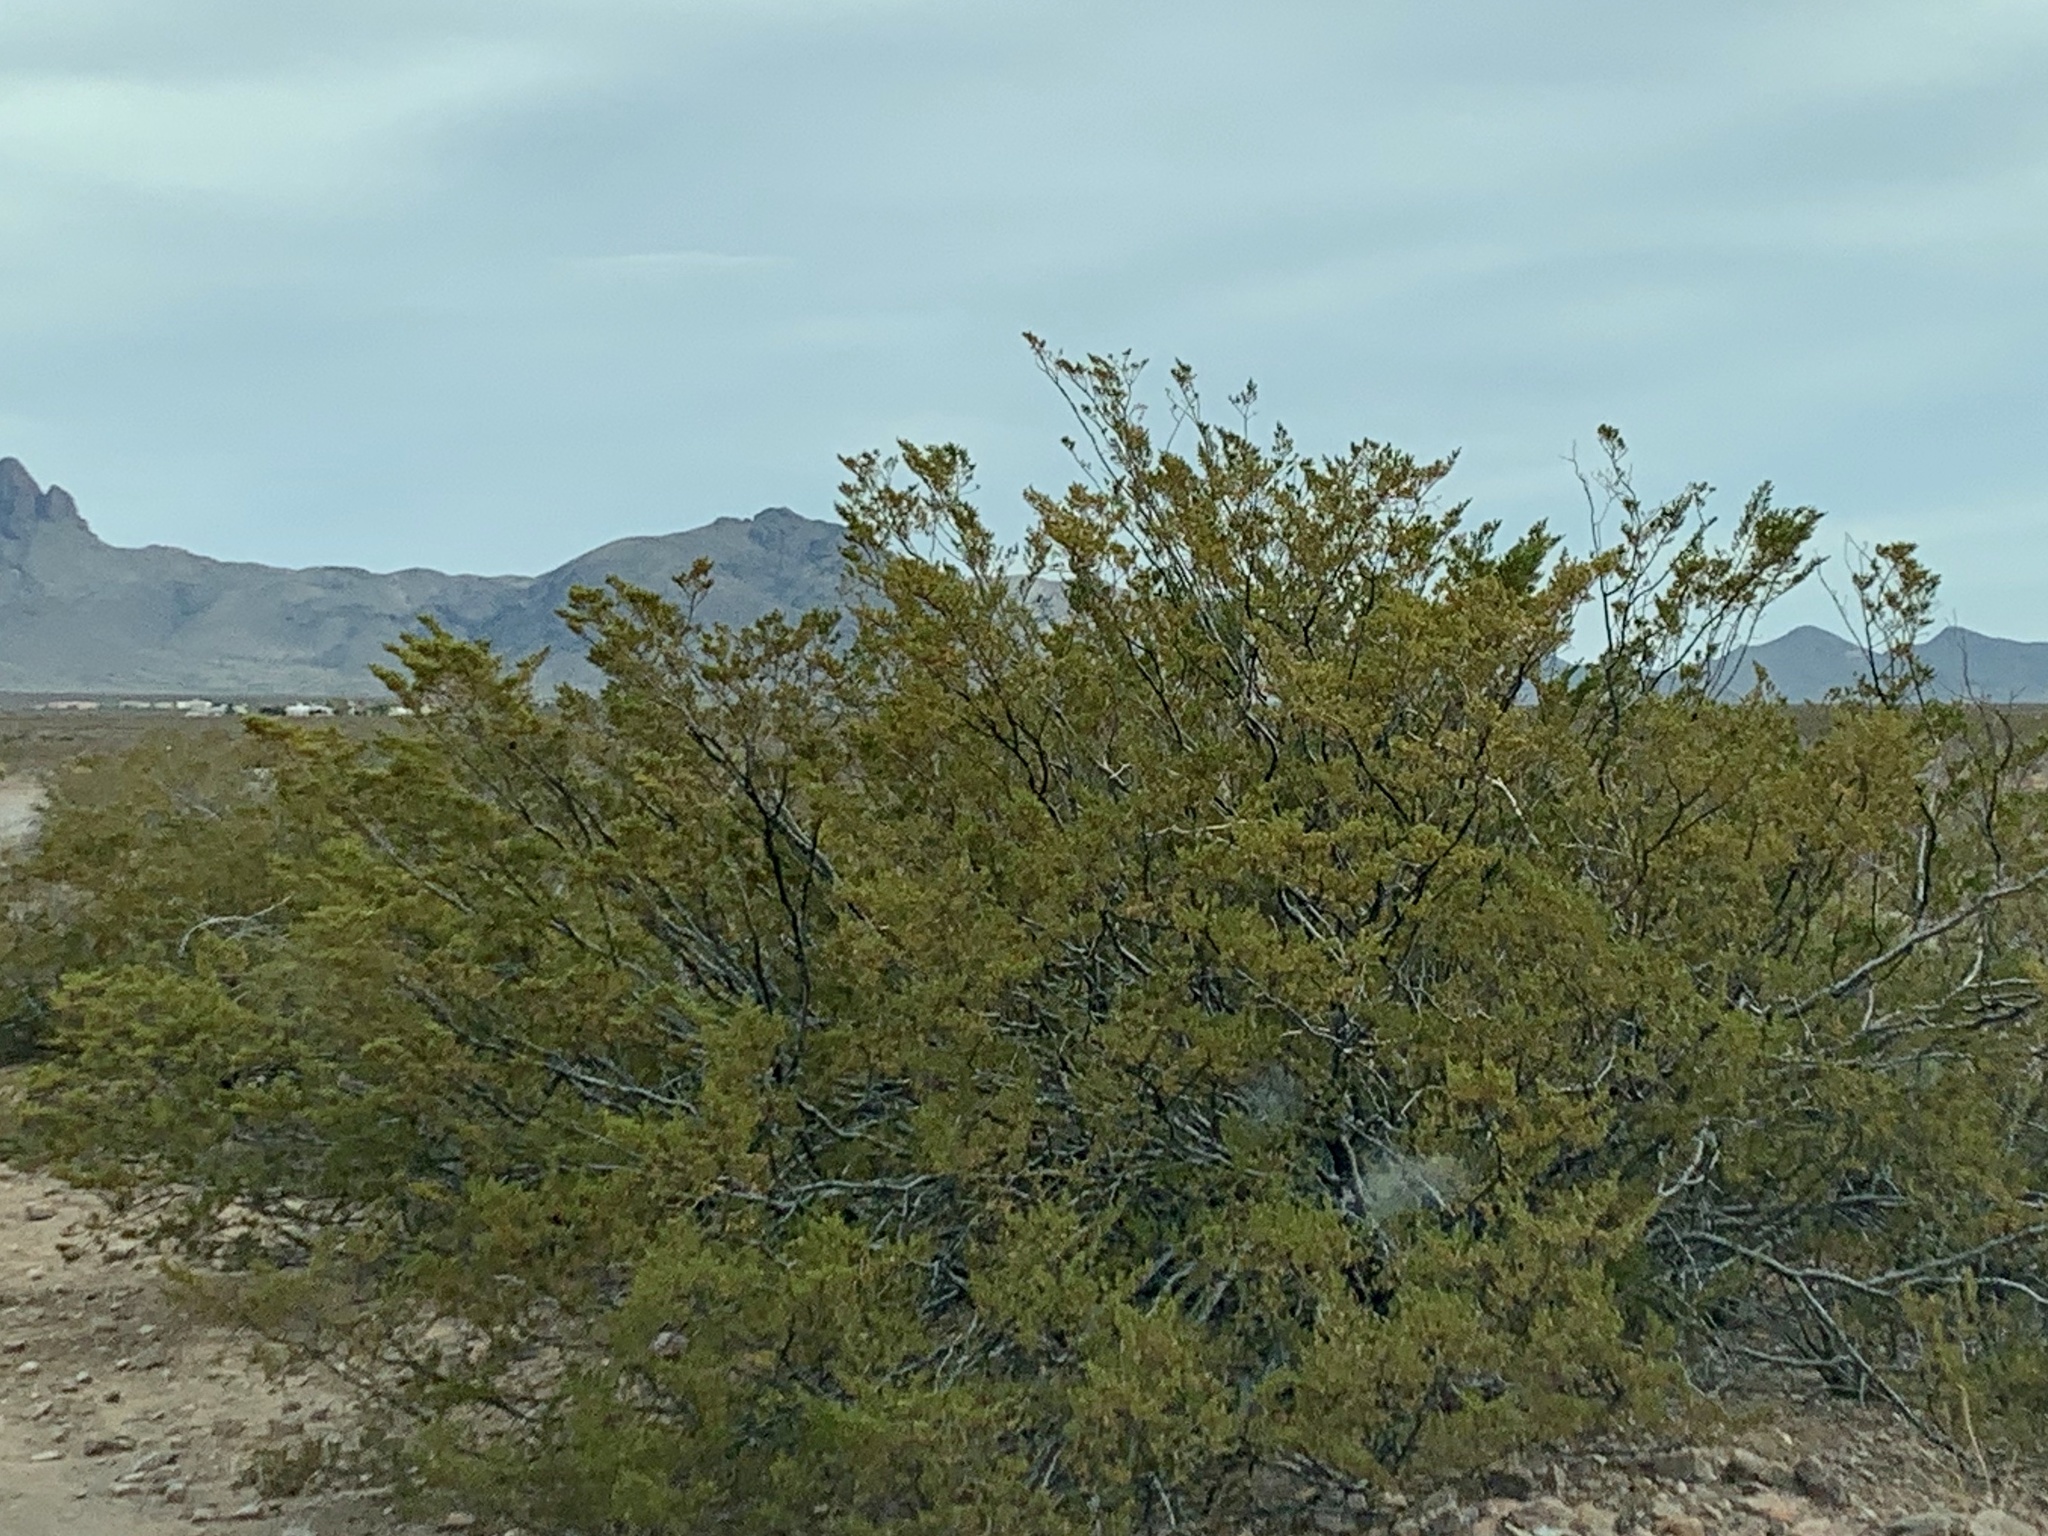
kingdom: Plantae
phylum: Tracheophyta
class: Magnoliopsida
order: Zygophyllales
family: Zygophyllaceae
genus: Larrea
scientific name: Larrea tridentata
